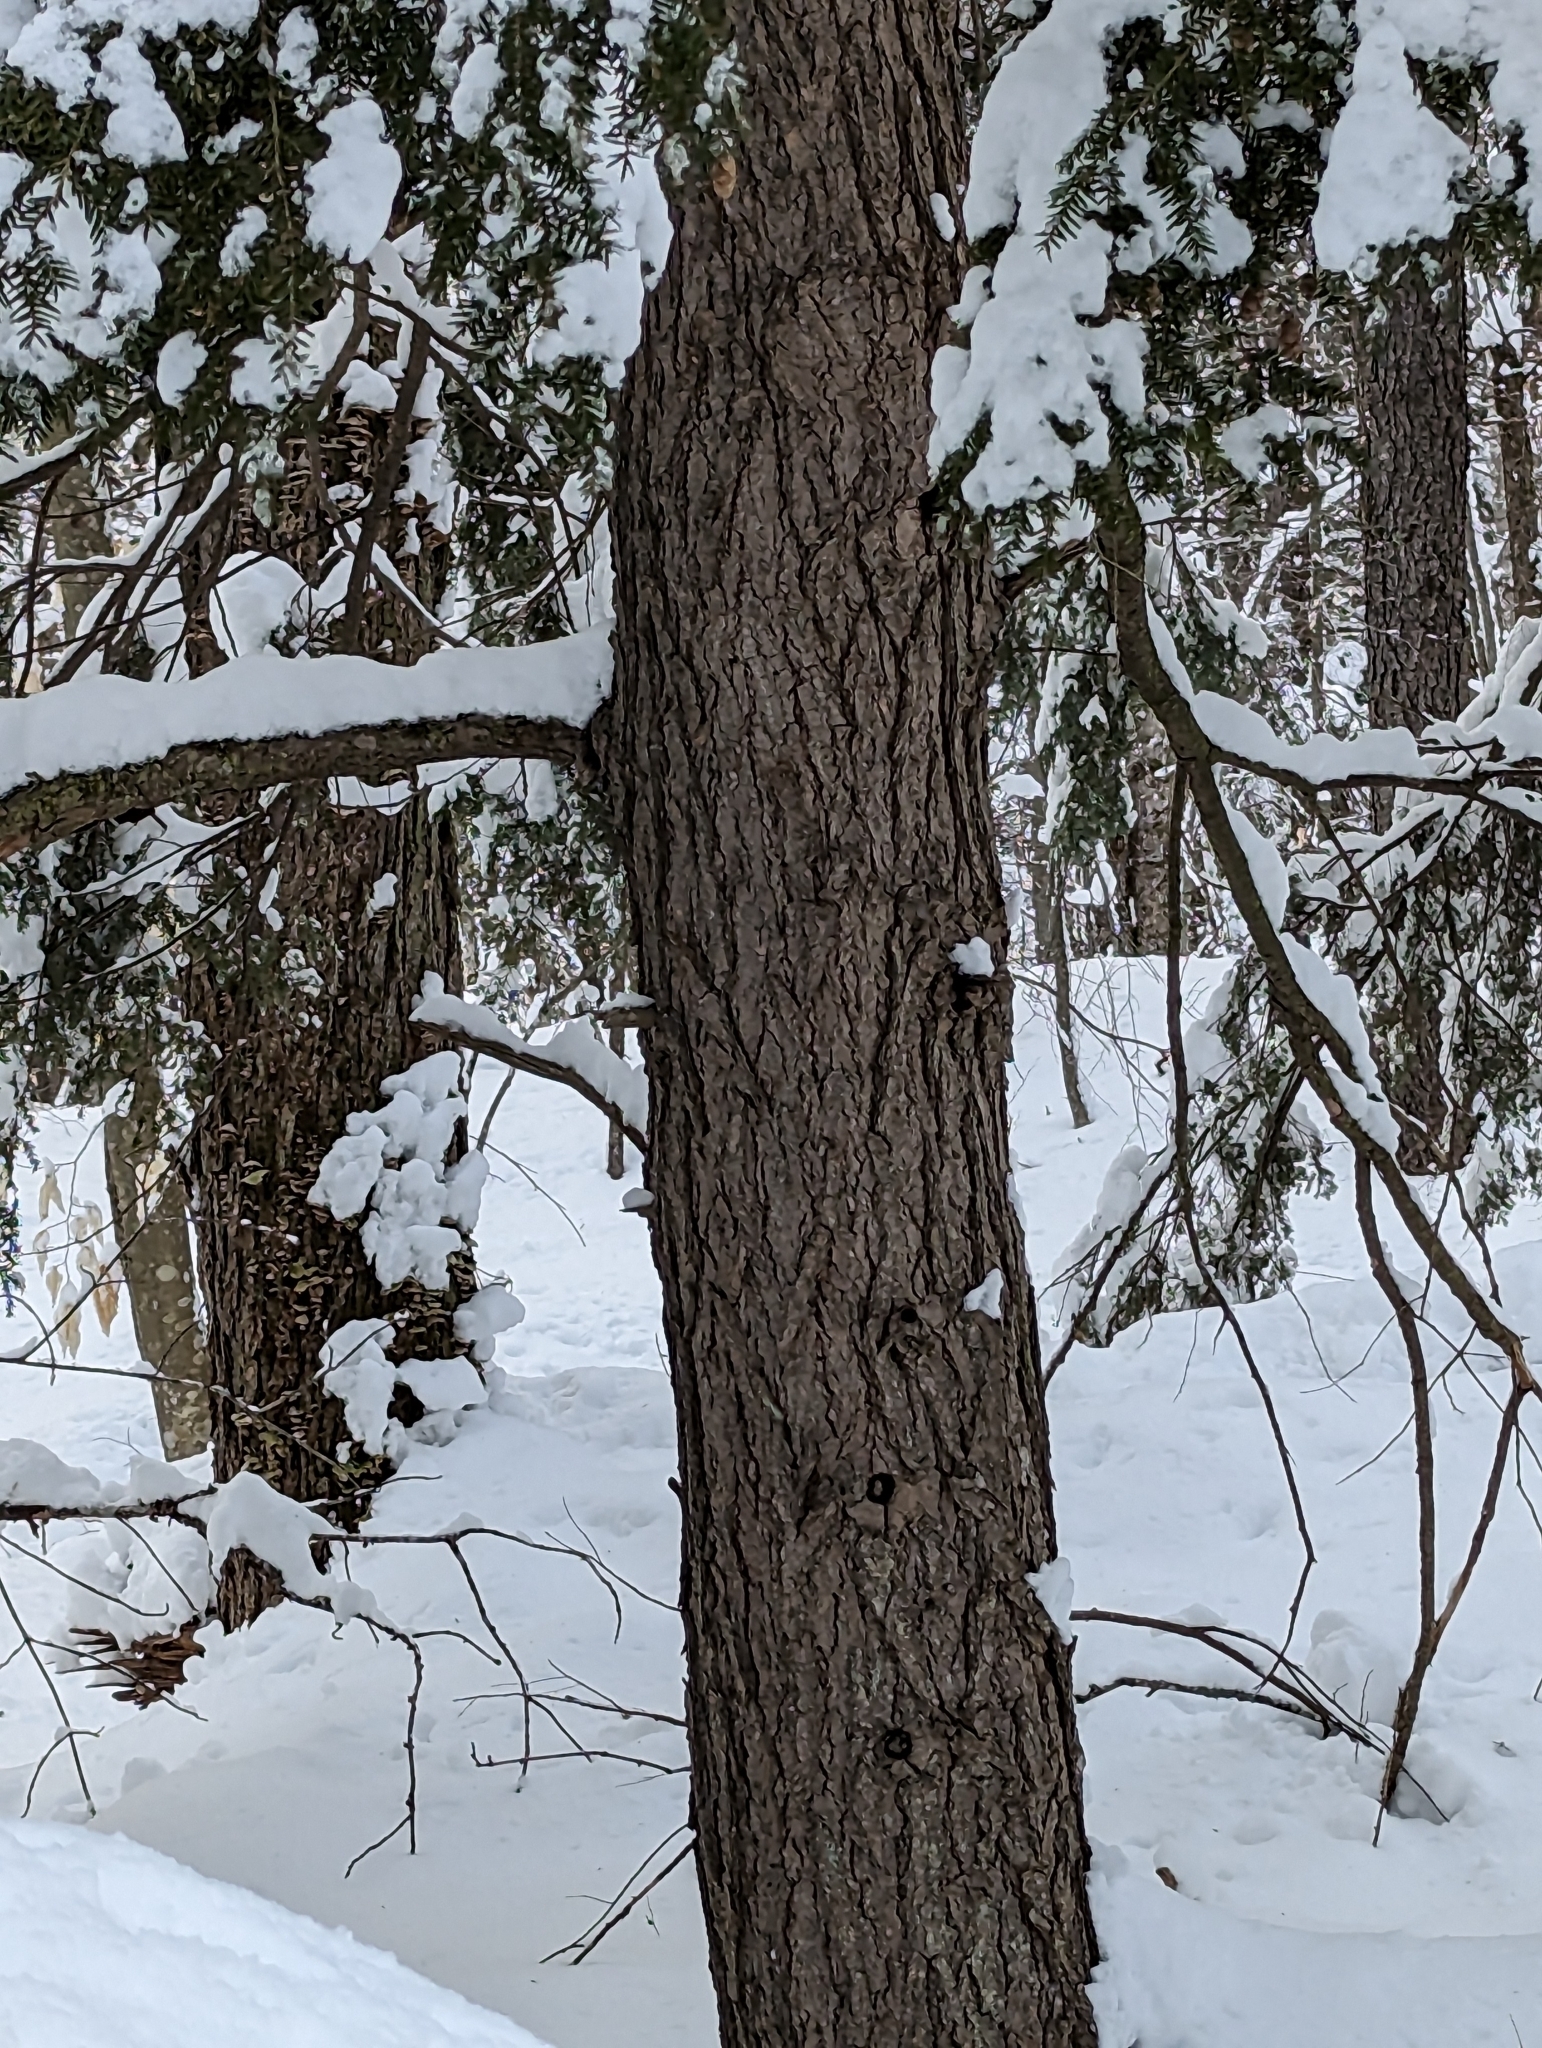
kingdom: Plantae
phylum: Tracheophyta
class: Pinopsida
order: Pinales
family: Pinaceae
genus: Tsuga
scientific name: Tsuga canadensis
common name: Eastern hemlock
